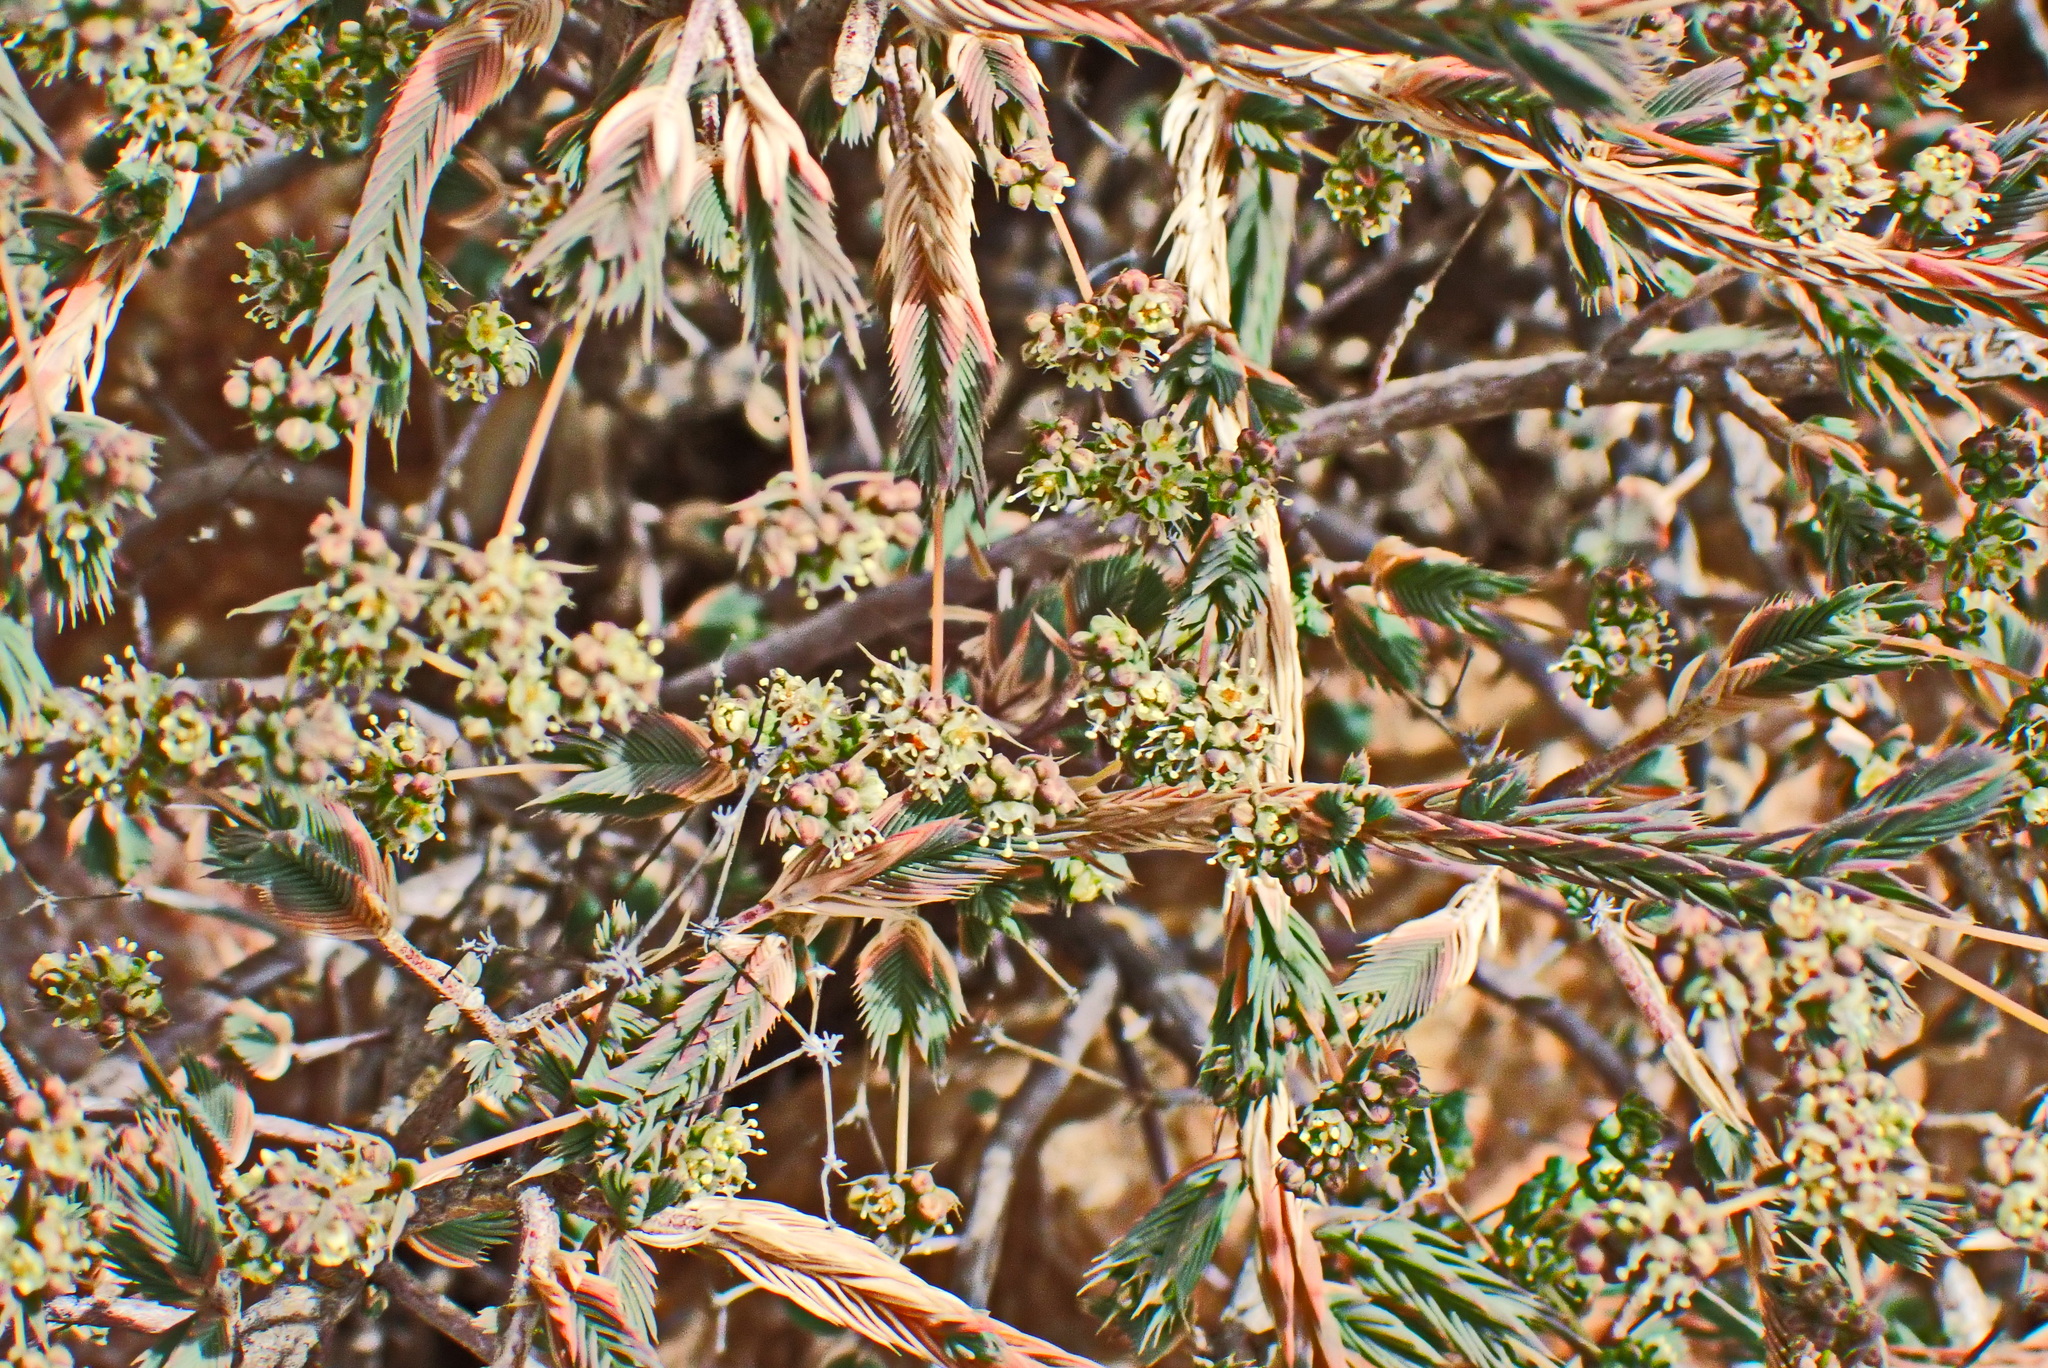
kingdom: Plantae
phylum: Tracheophyta
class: Magnoliopsida
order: Caryophyllales
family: Molluginaceae
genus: Psammotropha
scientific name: Psammotropha quadrangularis
